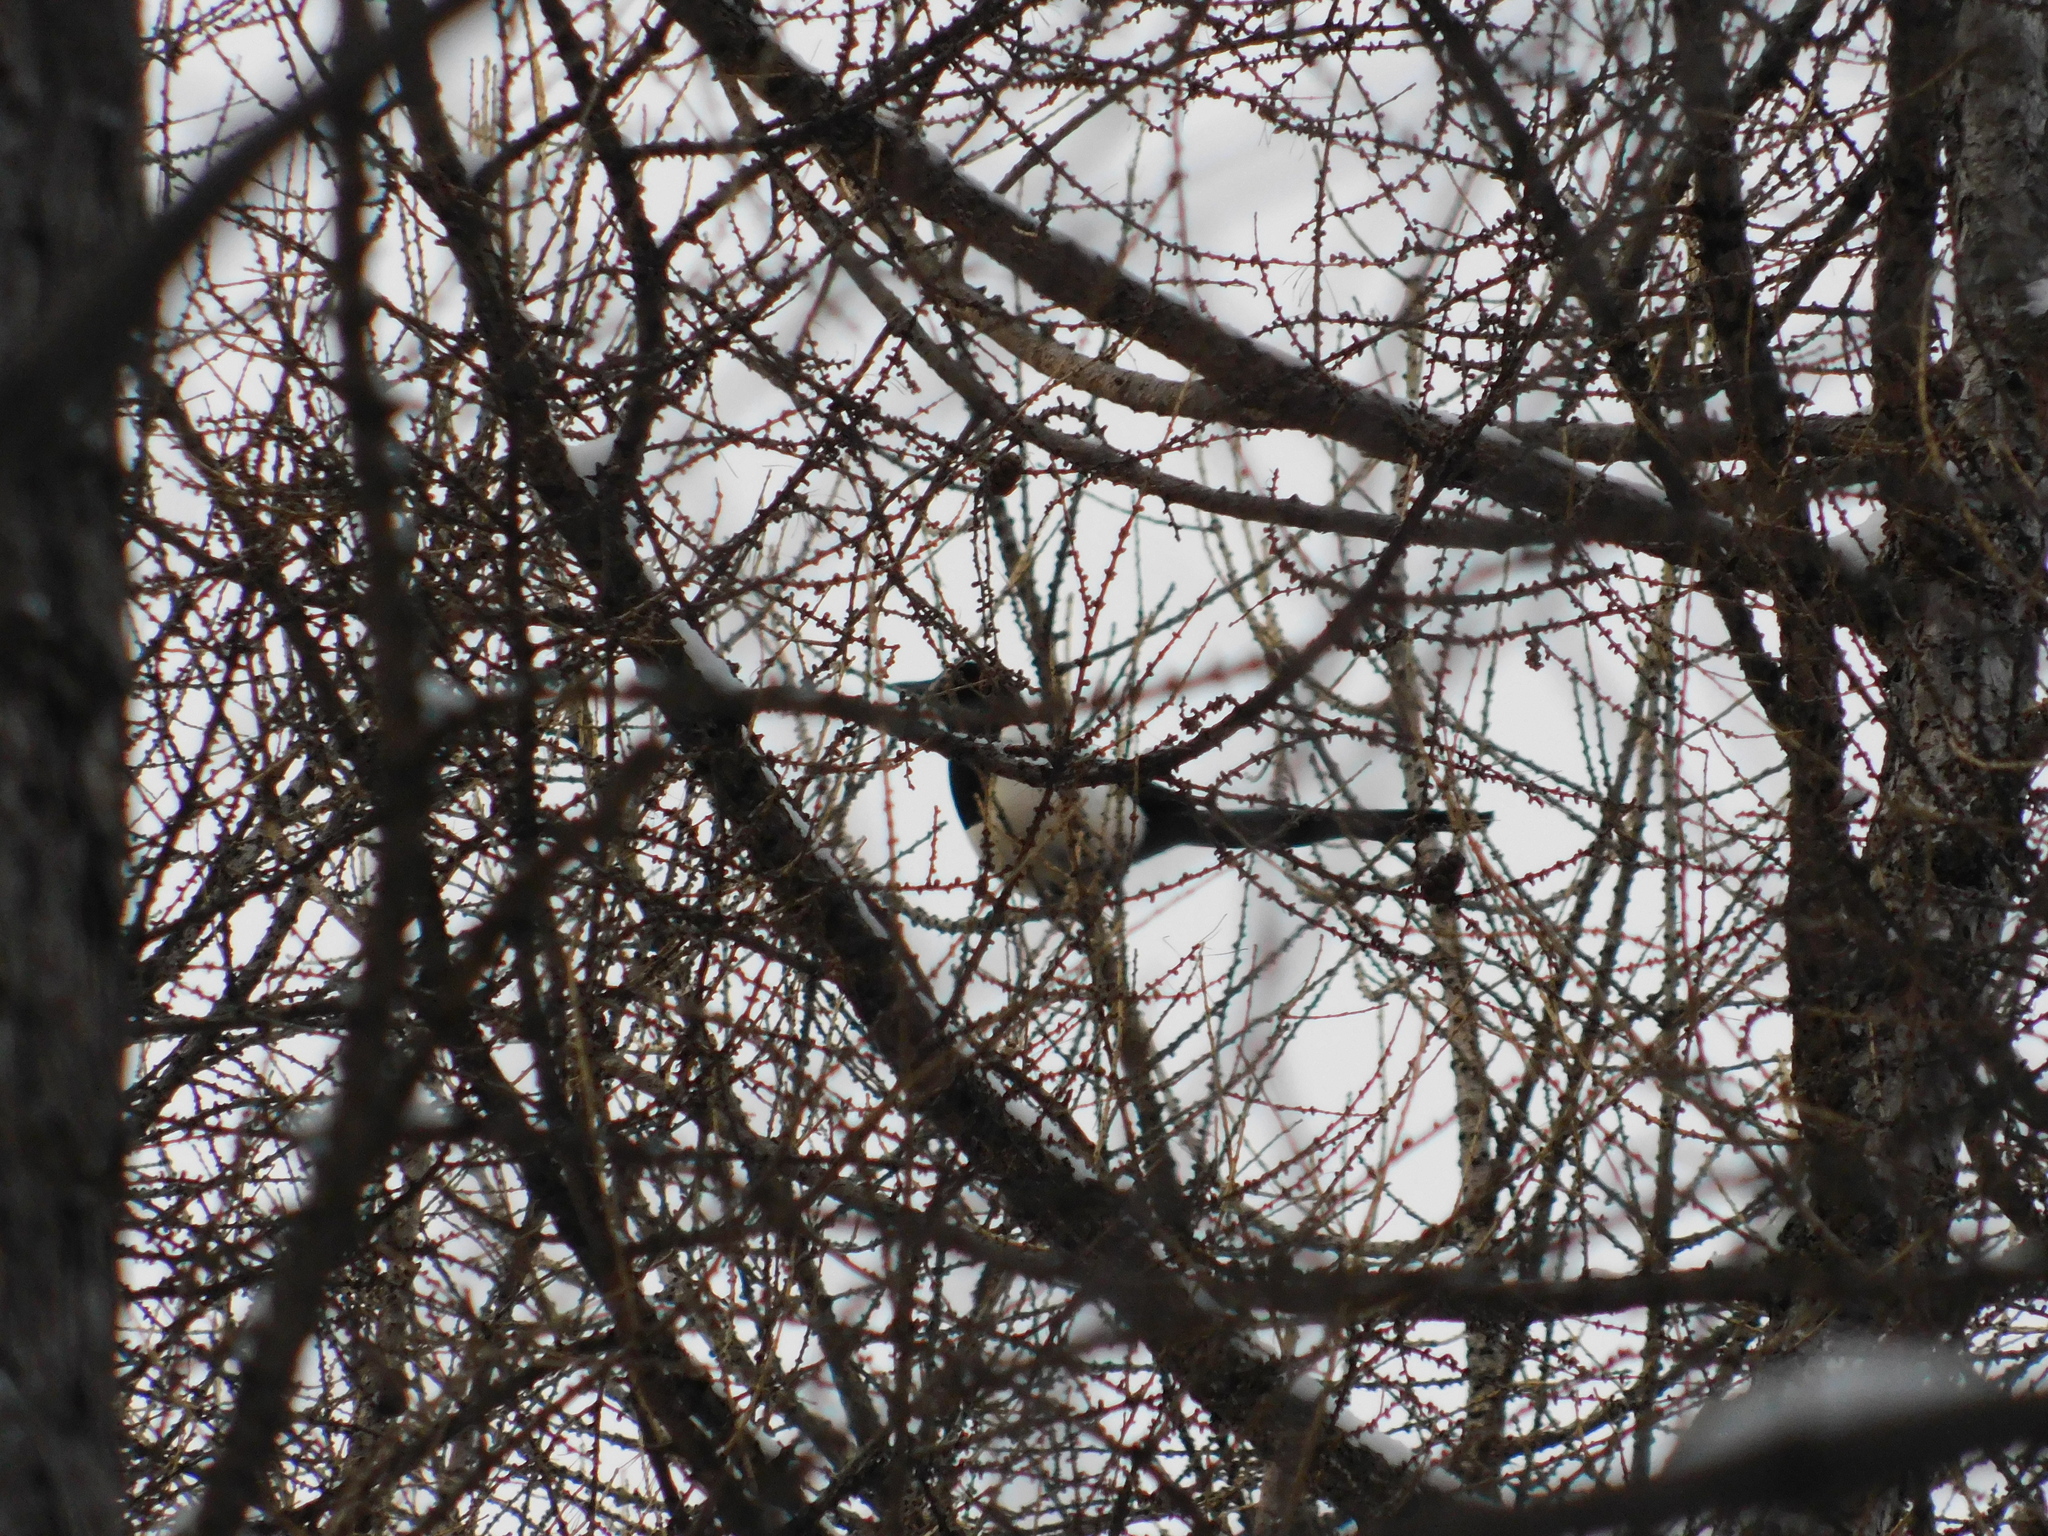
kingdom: Animalia
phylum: Chordata
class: Aves
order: Passeriformes
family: Corvidae
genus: Pica
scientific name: Pica pica
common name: Eurasian magpie
